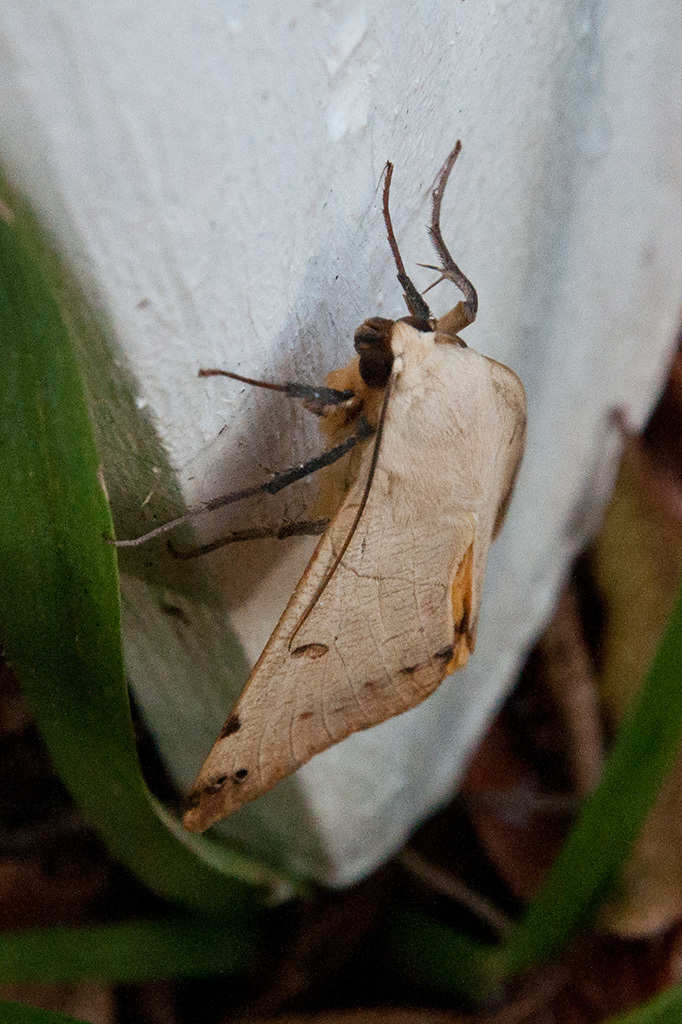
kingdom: Animalia
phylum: Arthropoda
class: Insecta
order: Lepidoptera
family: Erebidae
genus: Ophiusa
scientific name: Ophiusa tirhaca
